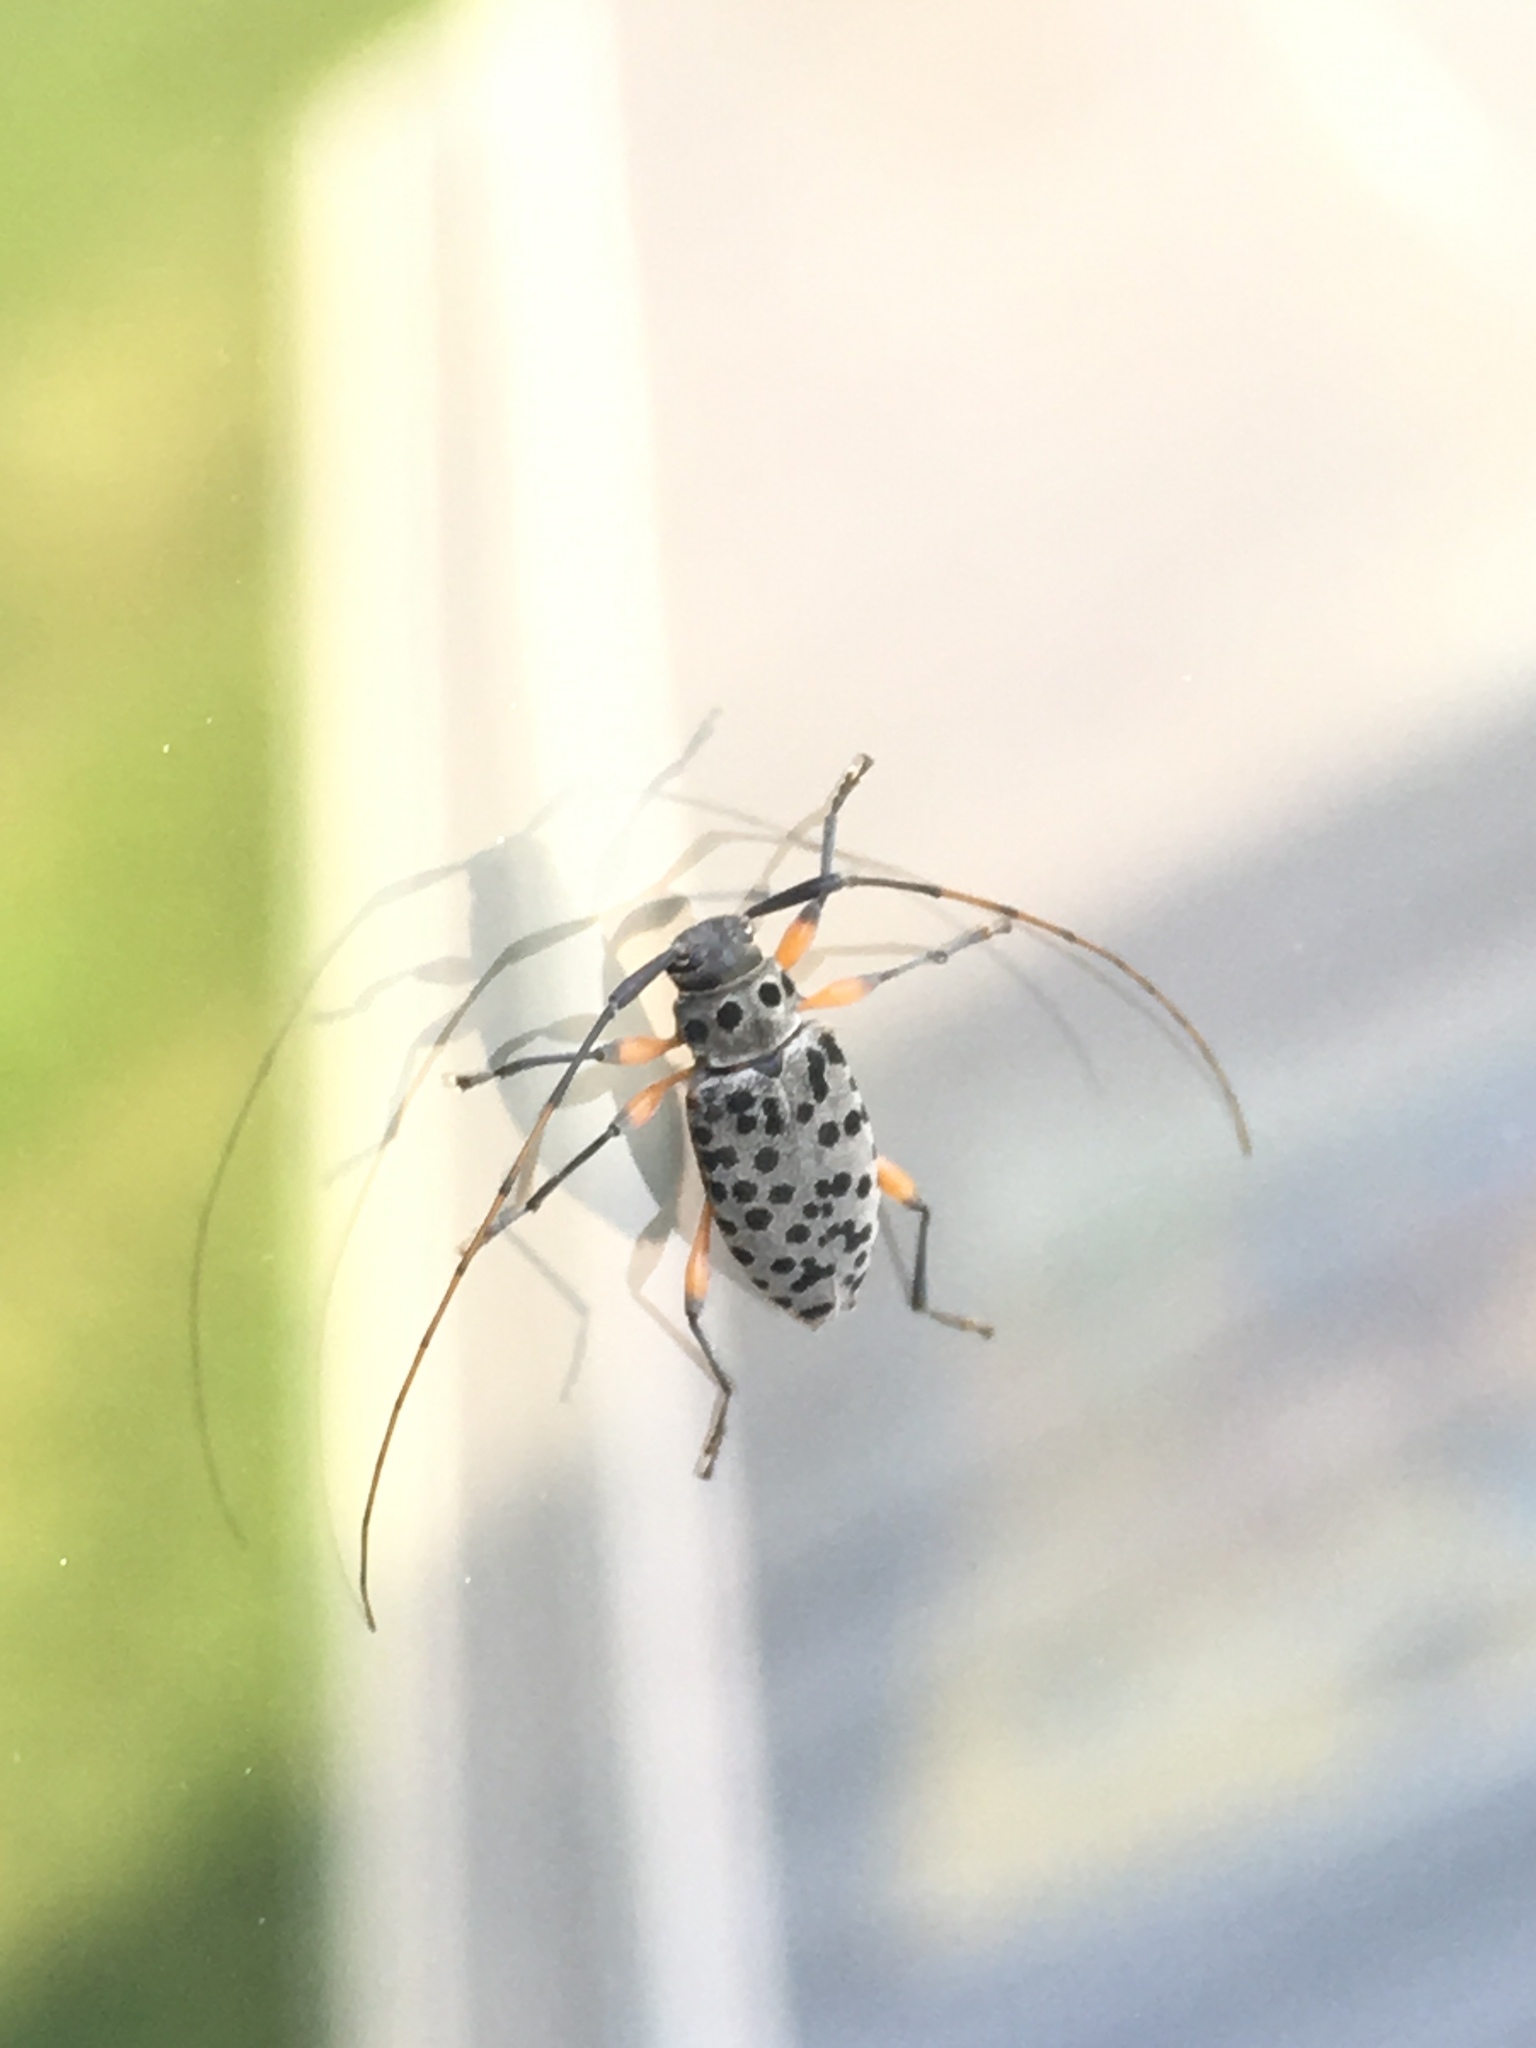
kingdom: Animalia
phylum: Arthropoda
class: Insecta
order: Coleoptera
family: Cerambycidae
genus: Hyperplatys
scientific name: Hyperplatys aspersa
